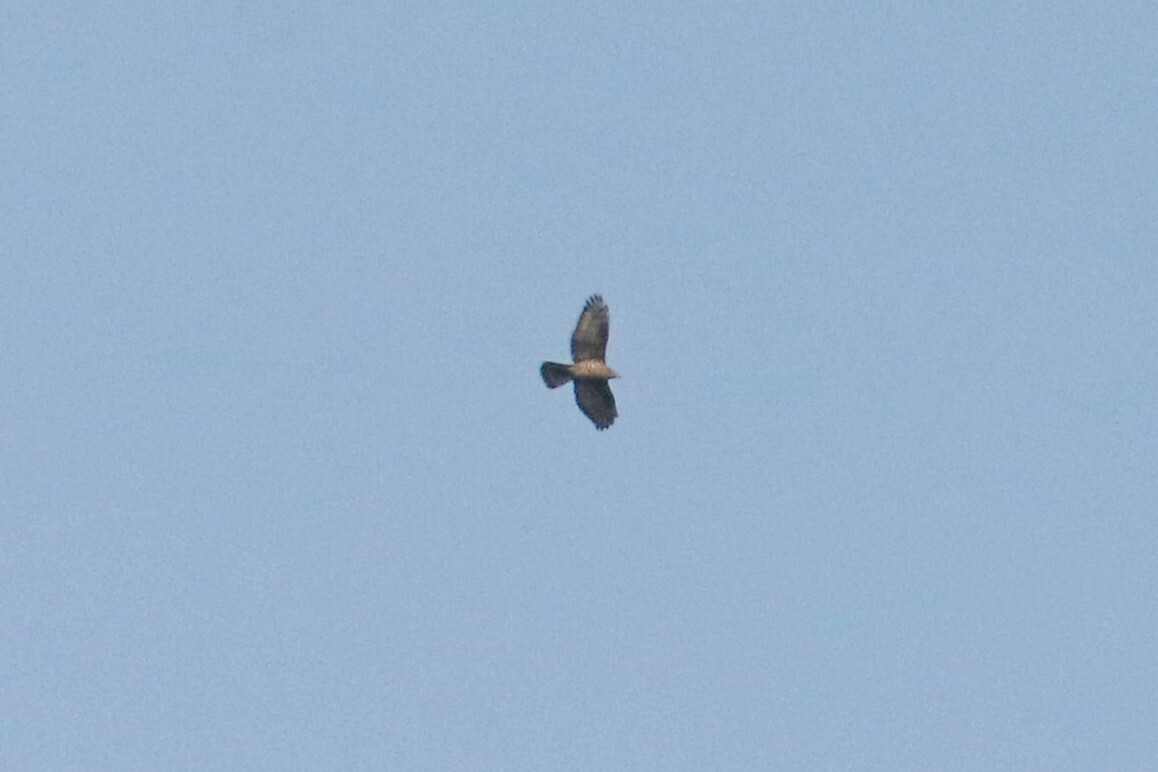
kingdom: Animalia
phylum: Chordata
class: Aves
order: Accipitriformes
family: Accipitridae
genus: Pernis
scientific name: Pernis apivorus
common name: European honey buzzard
